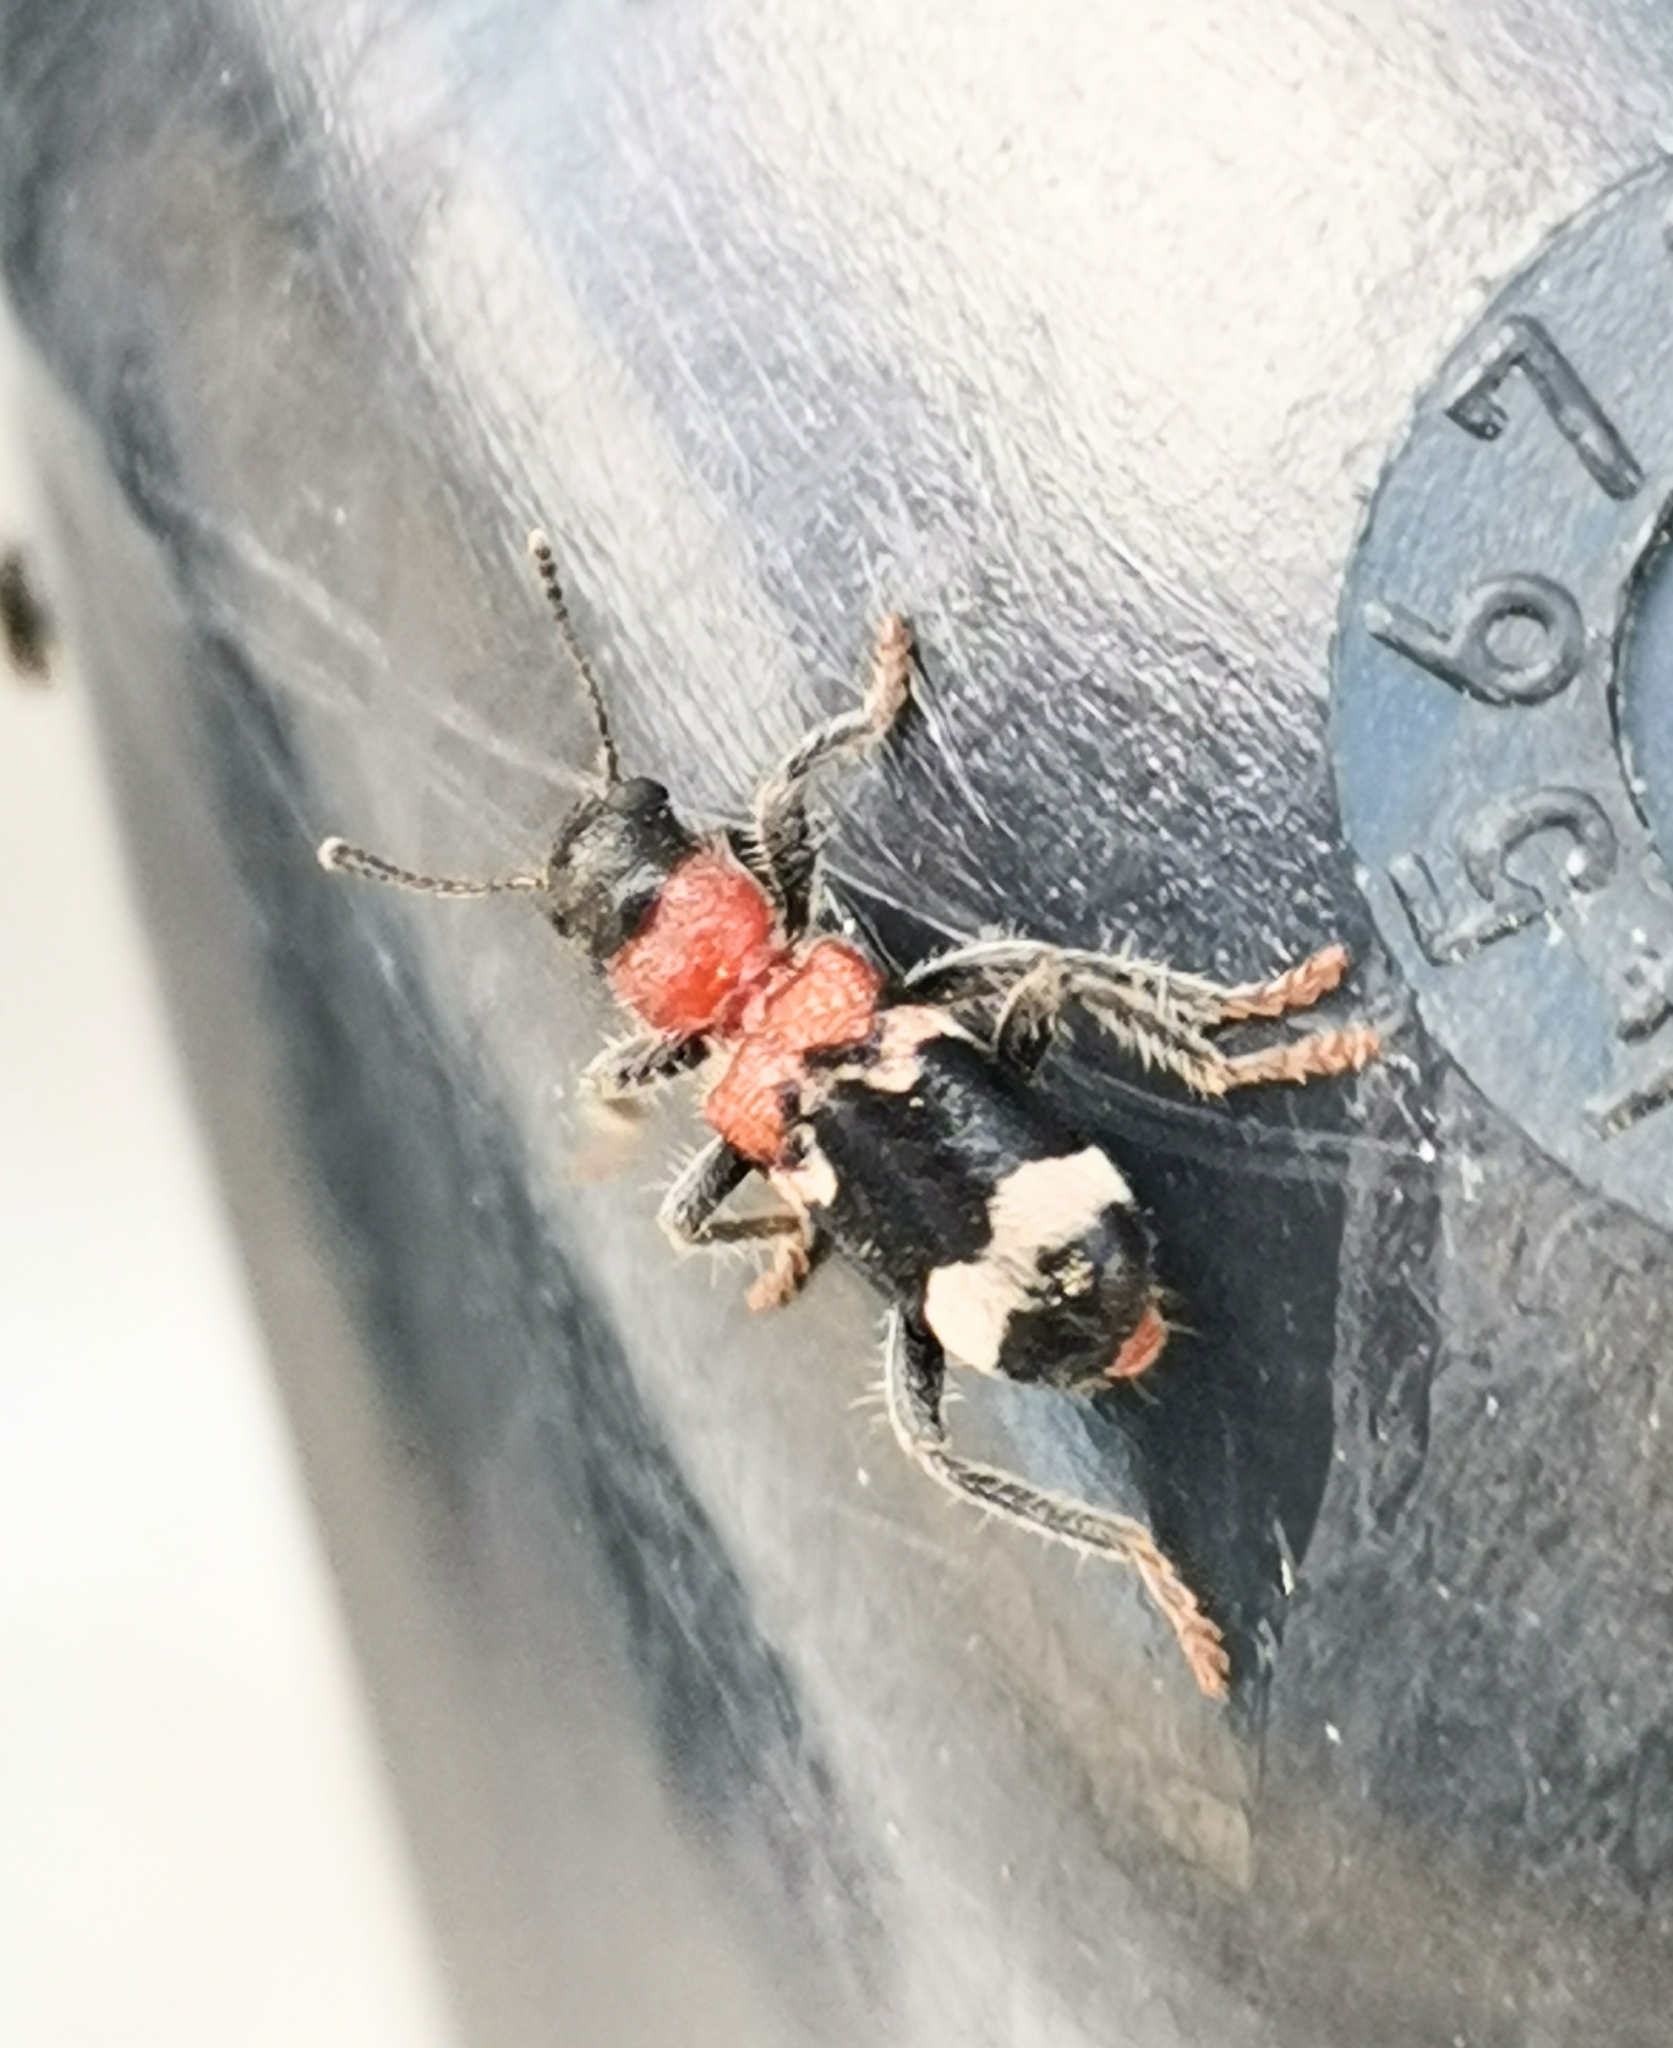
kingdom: Animalia
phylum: Arthropoda
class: Insecta
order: Coleoptera
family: Cleridae
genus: Thanasimus
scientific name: Thanasimus formicarius
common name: Ant beetle
